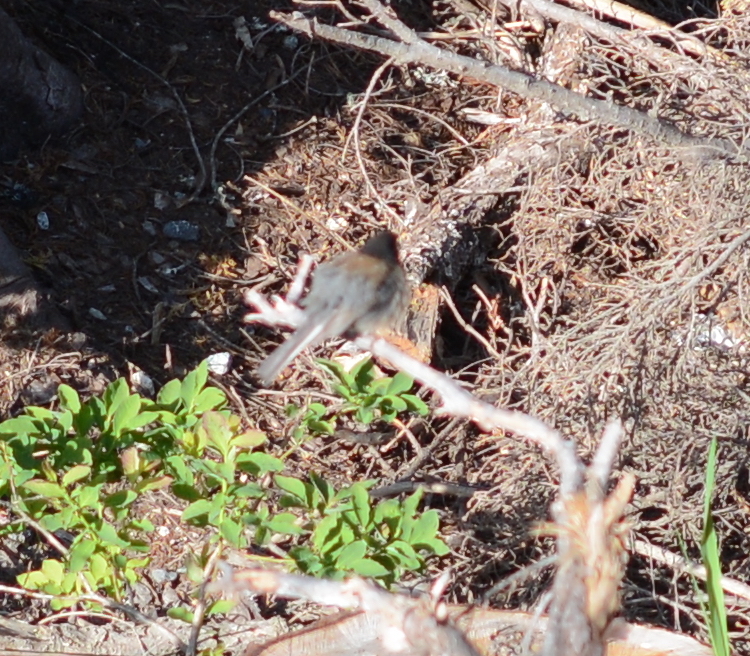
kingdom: Animalia
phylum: Chordata
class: Aves
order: Passeriformes
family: Passerellidae
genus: Junco
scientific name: Junco hyemalis
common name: Dark-eyed junco
